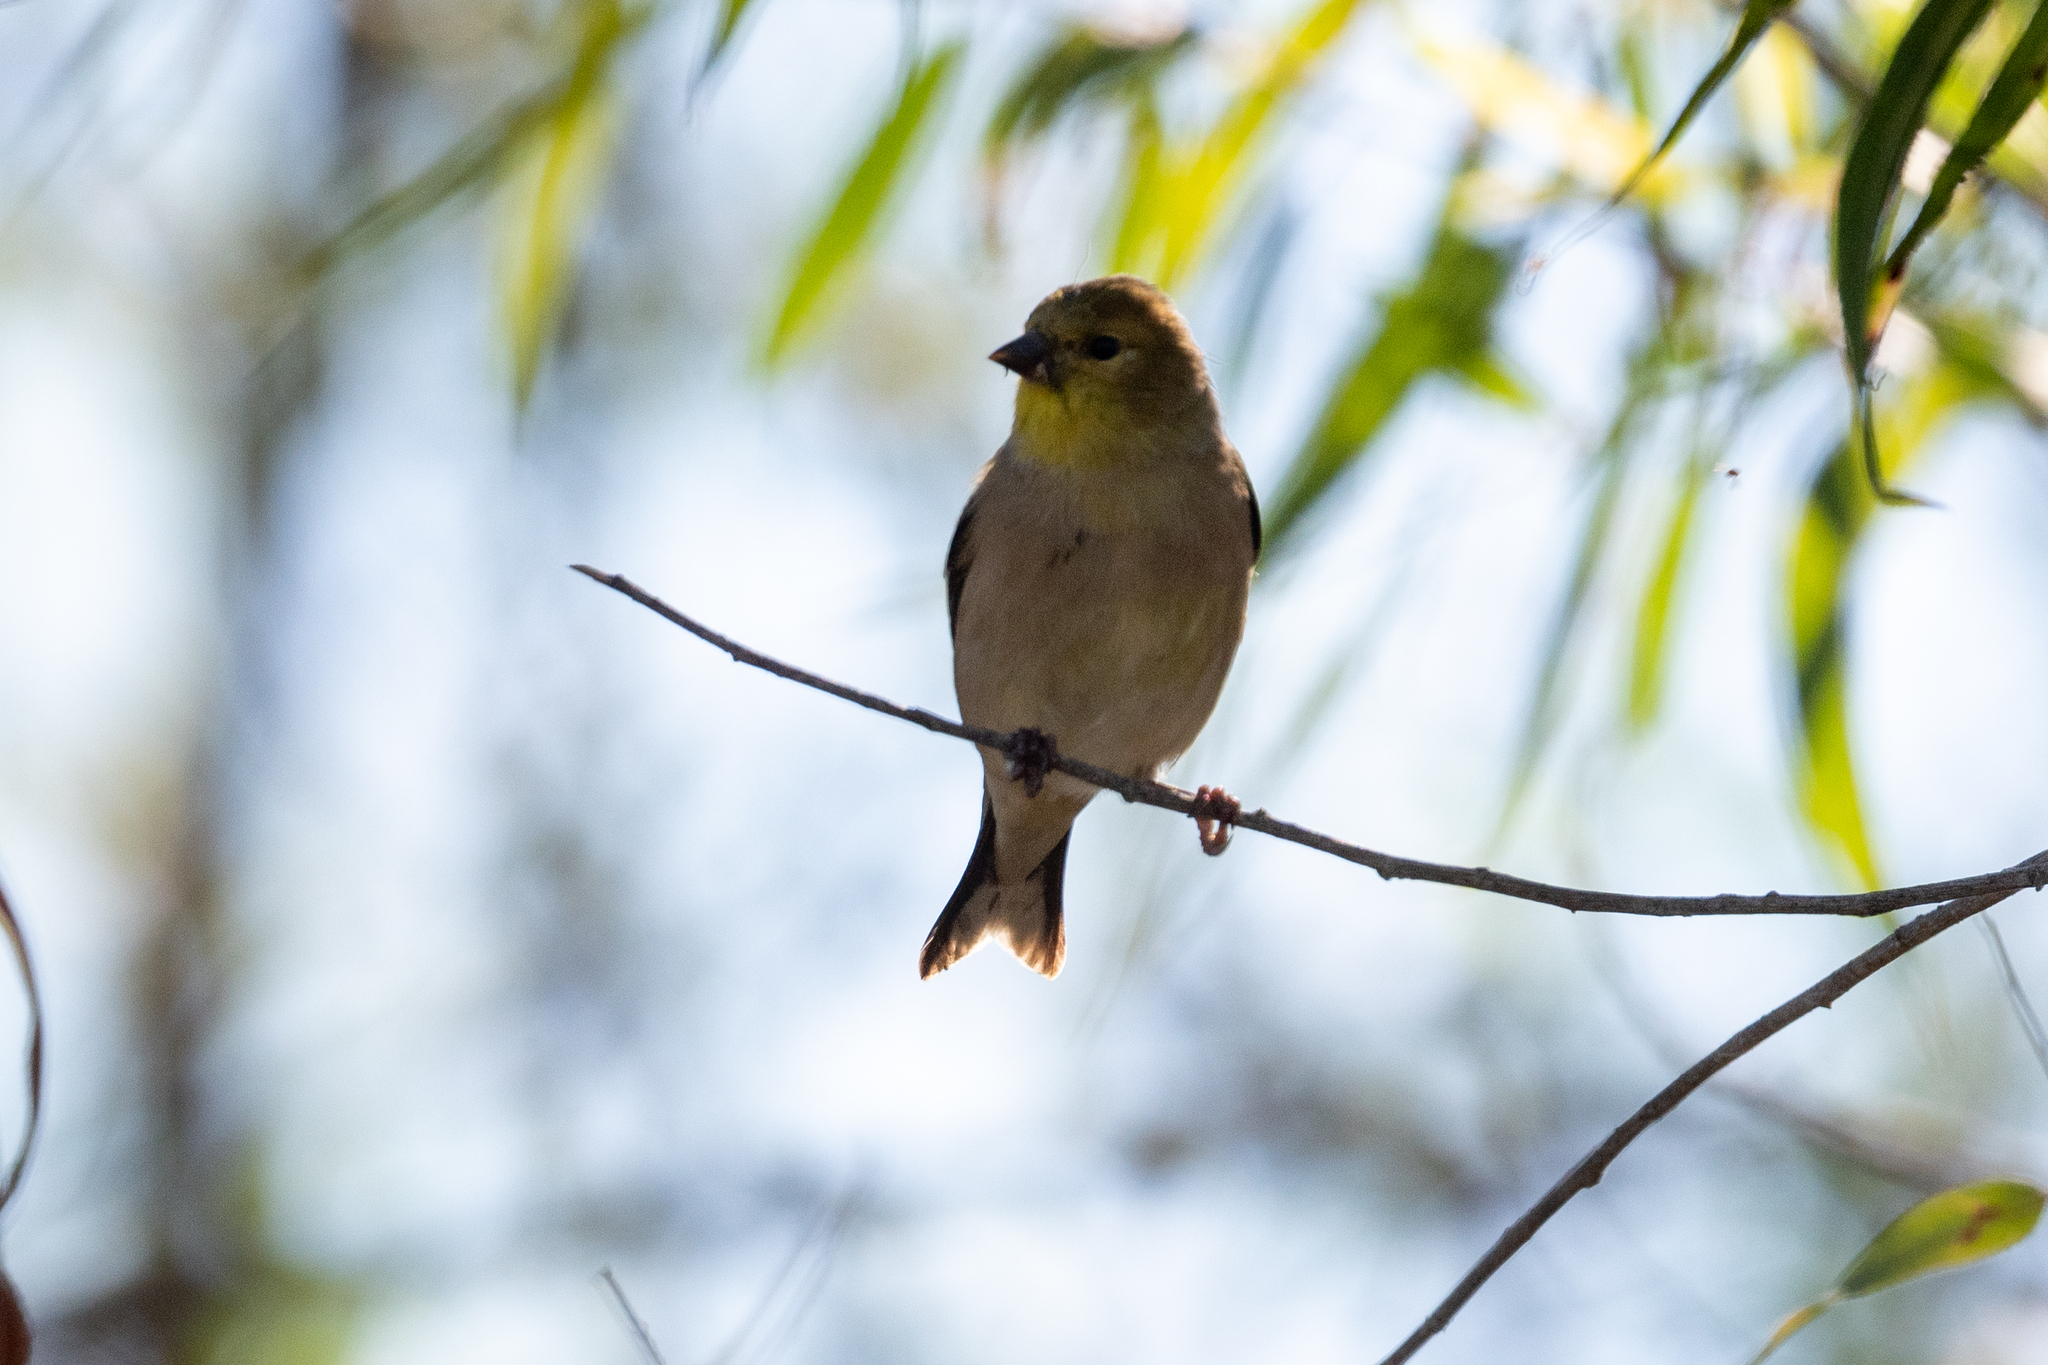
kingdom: Animalia
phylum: Chordata
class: Aves
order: Passeriformes
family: Fringillidae
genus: Spinus
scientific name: Spinus tristis
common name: American goldfinch
